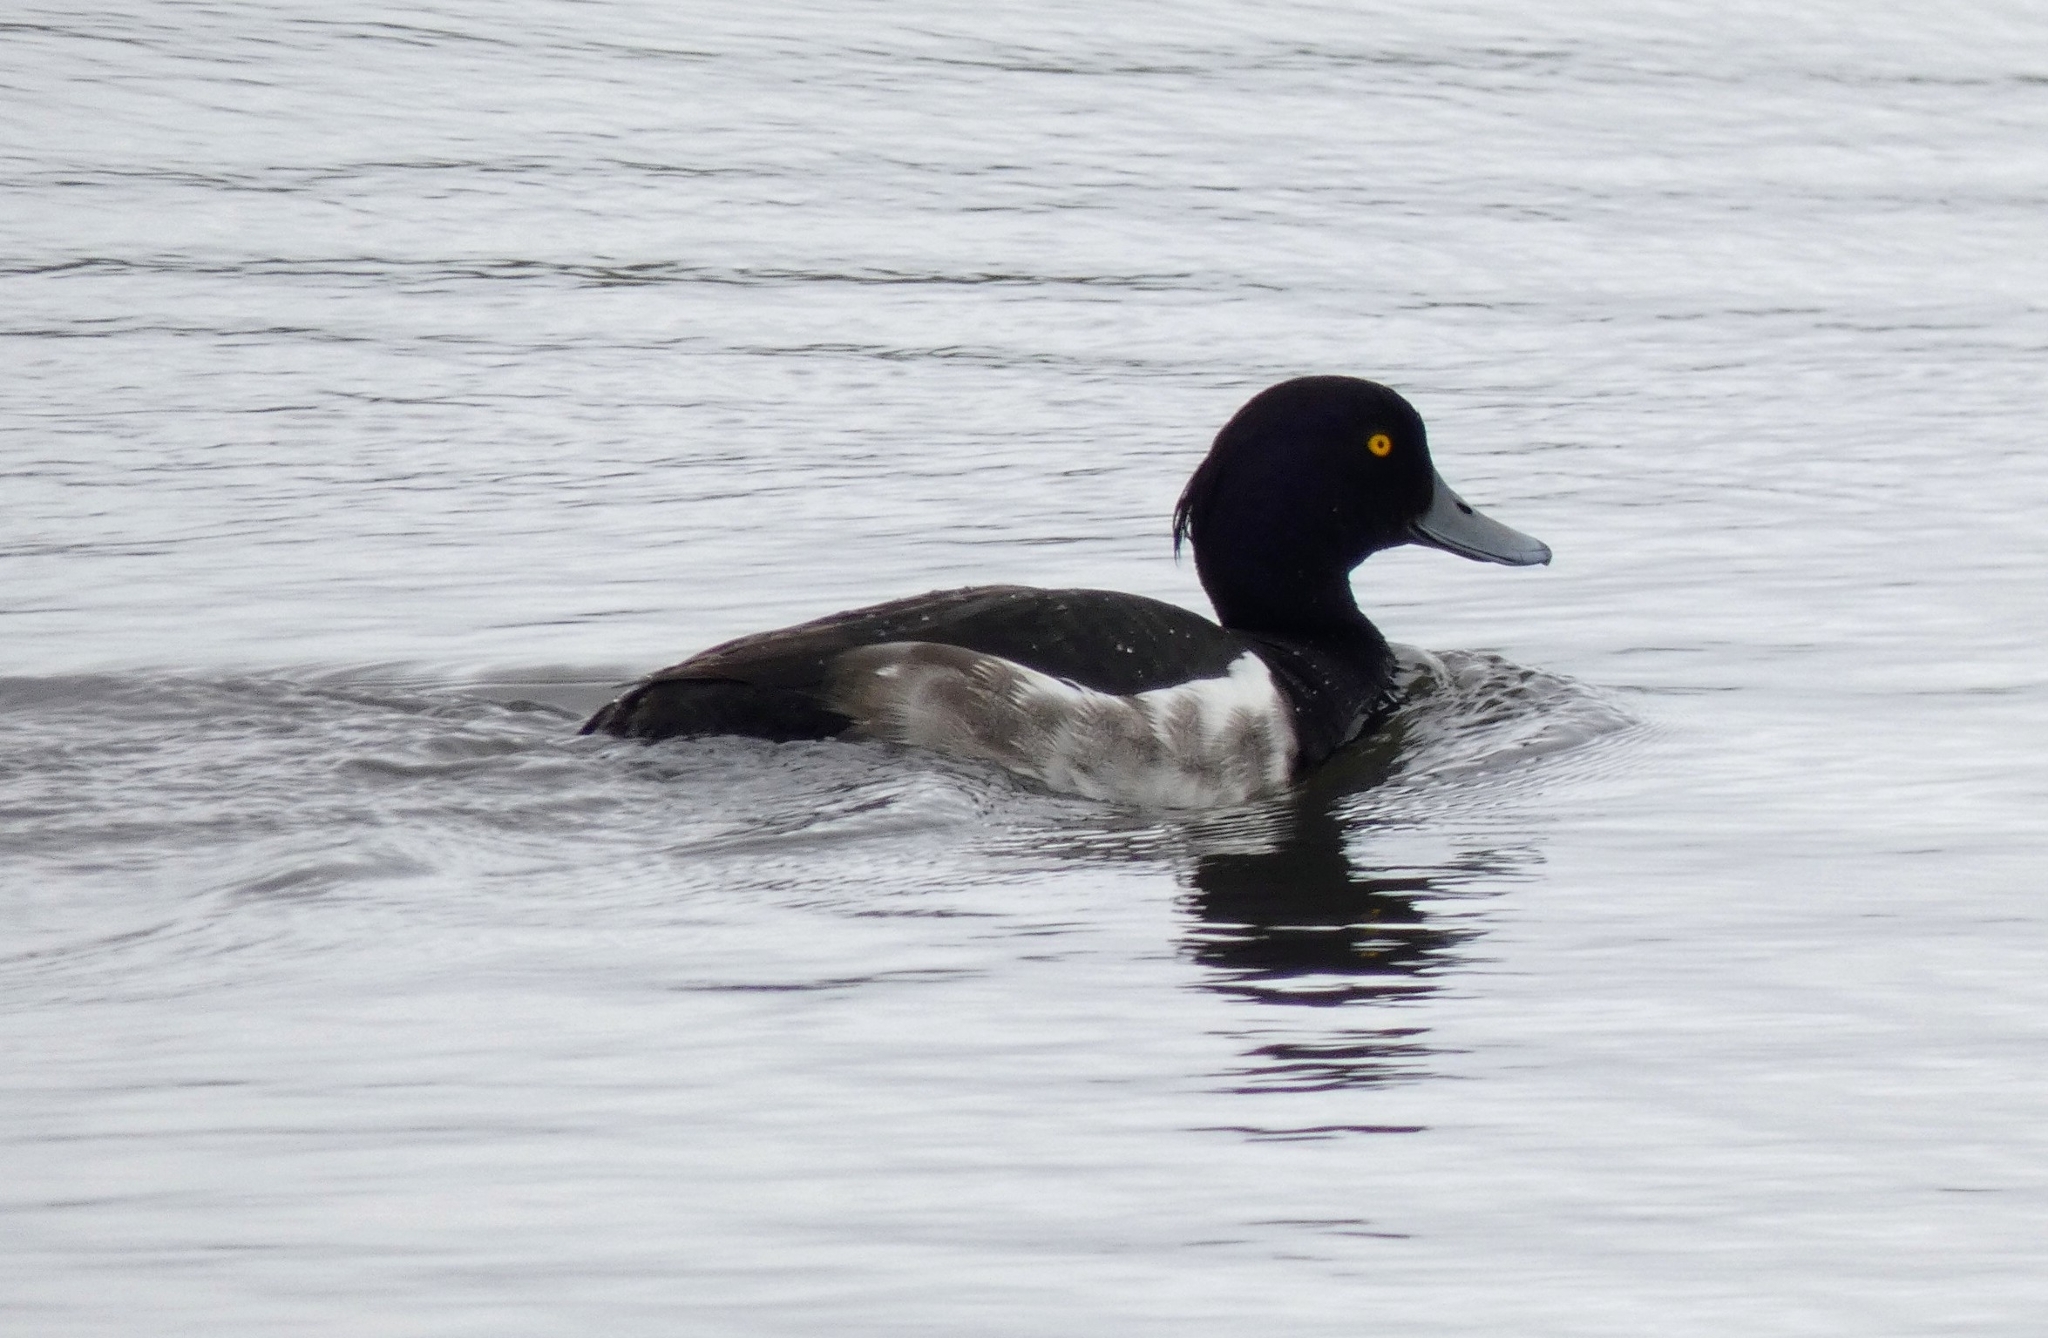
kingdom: Animalia
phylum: Chordata
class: Aves
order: Anseriformes
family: Anatidae
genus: Aythya
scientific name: Aythya fuligula
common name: Tufted duck
